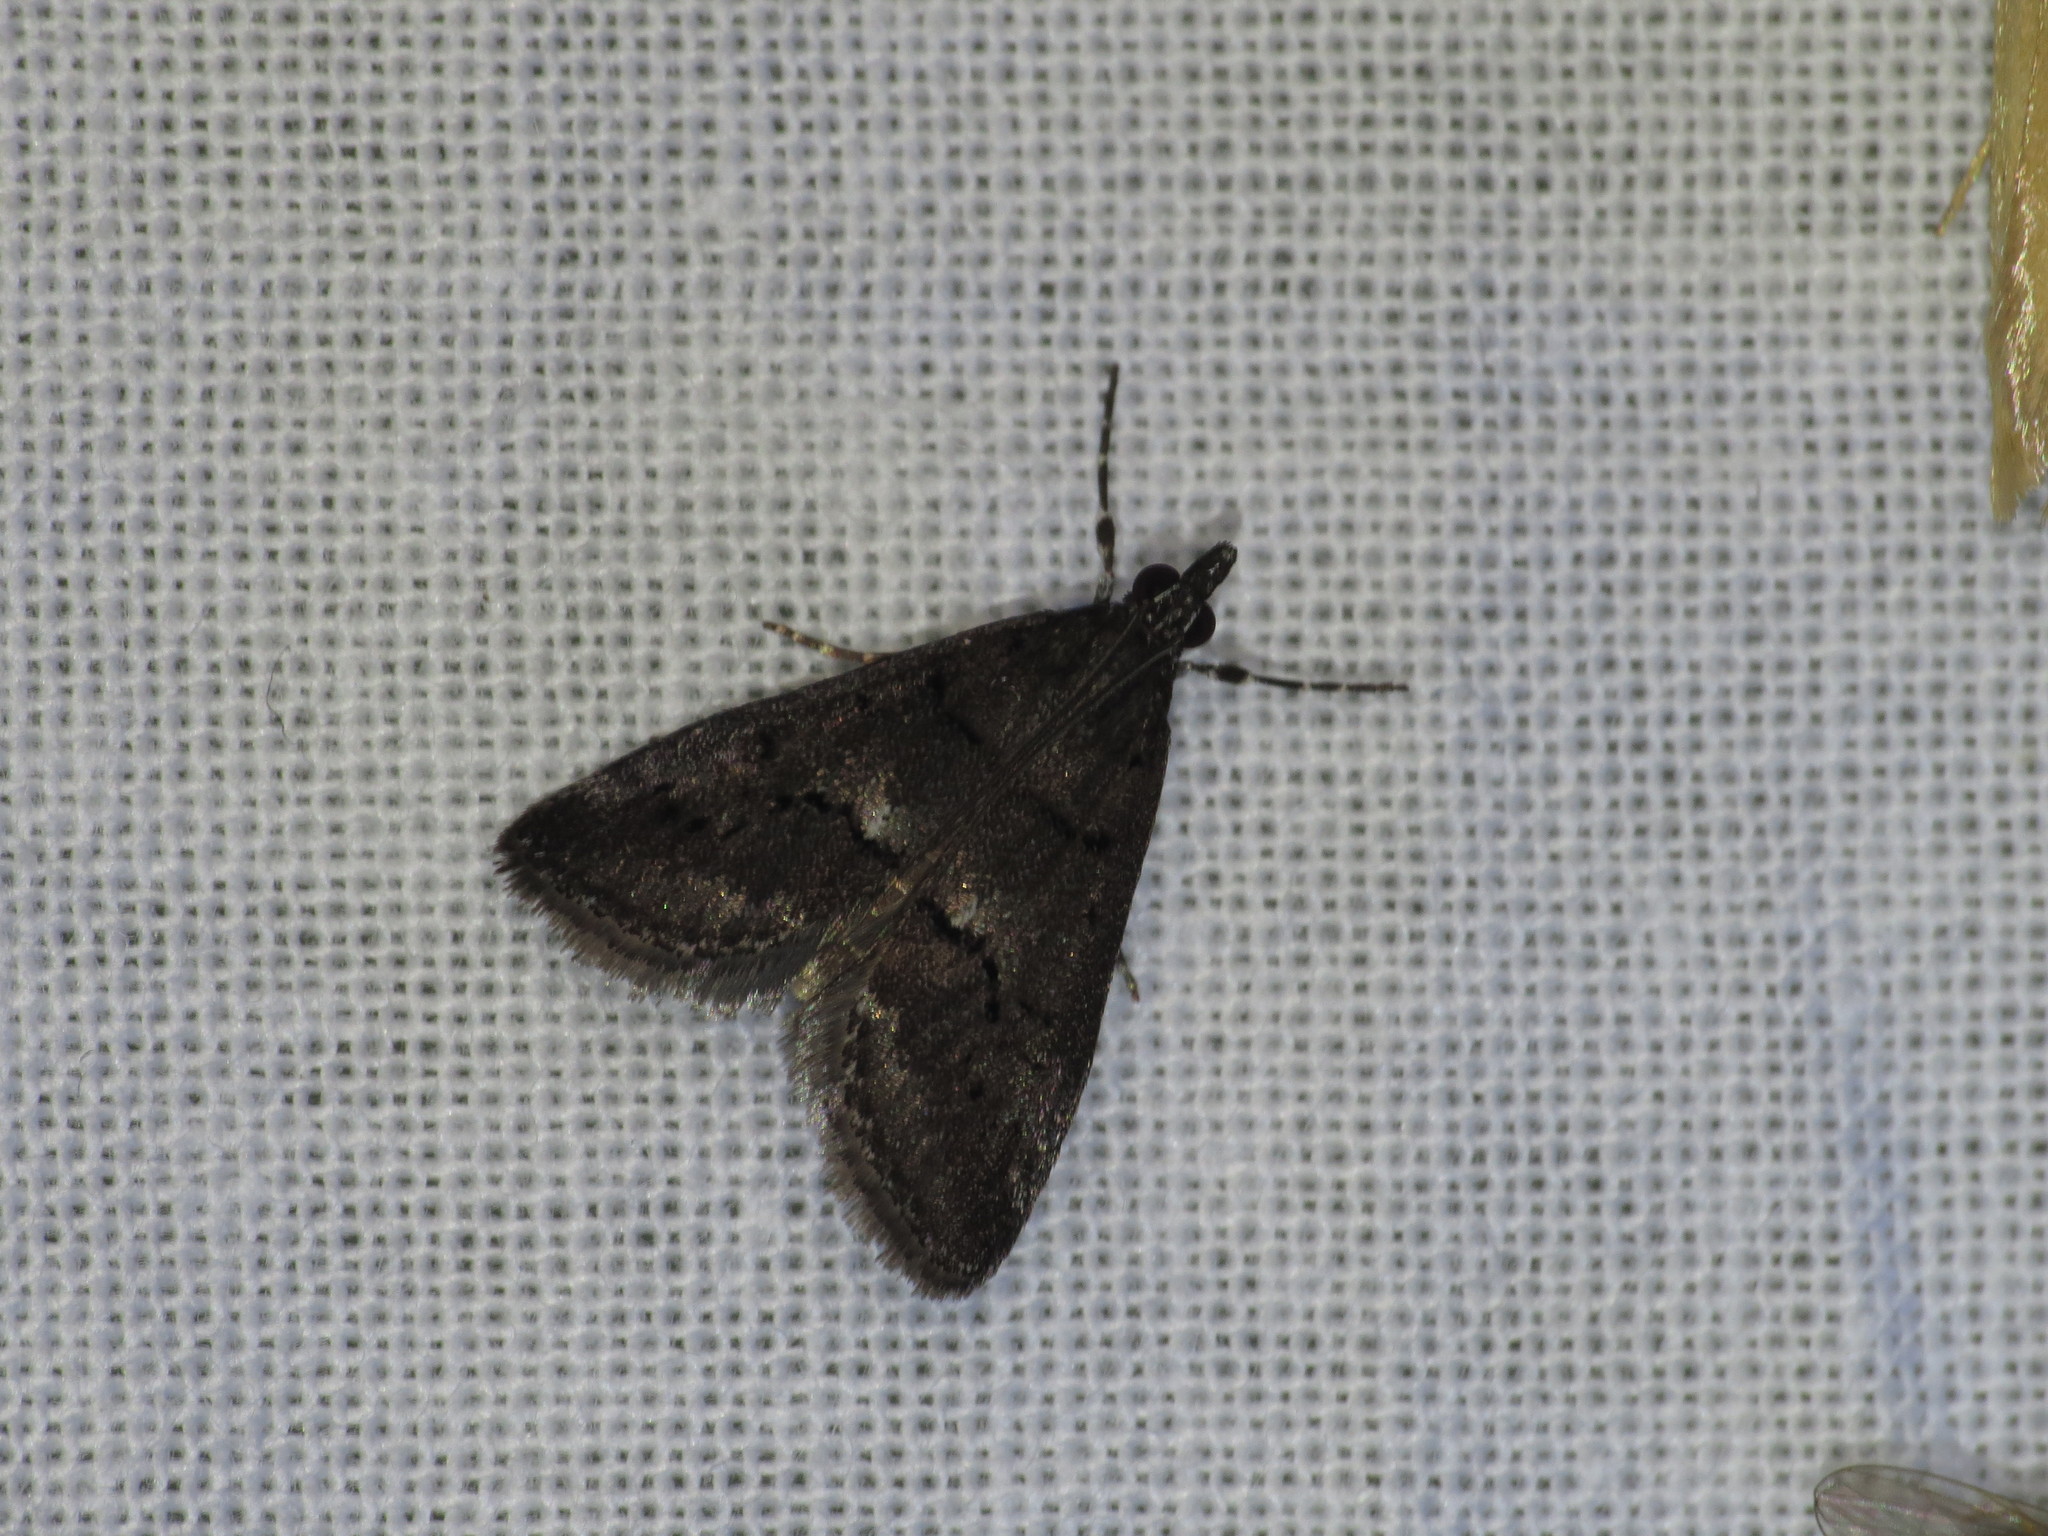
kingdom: Animalia
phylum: Arthropoda
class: Insecta
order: Lepidoptera
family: Crambidae
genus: Eclipsiodes
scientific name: Eclipsiodes crypsixantha
